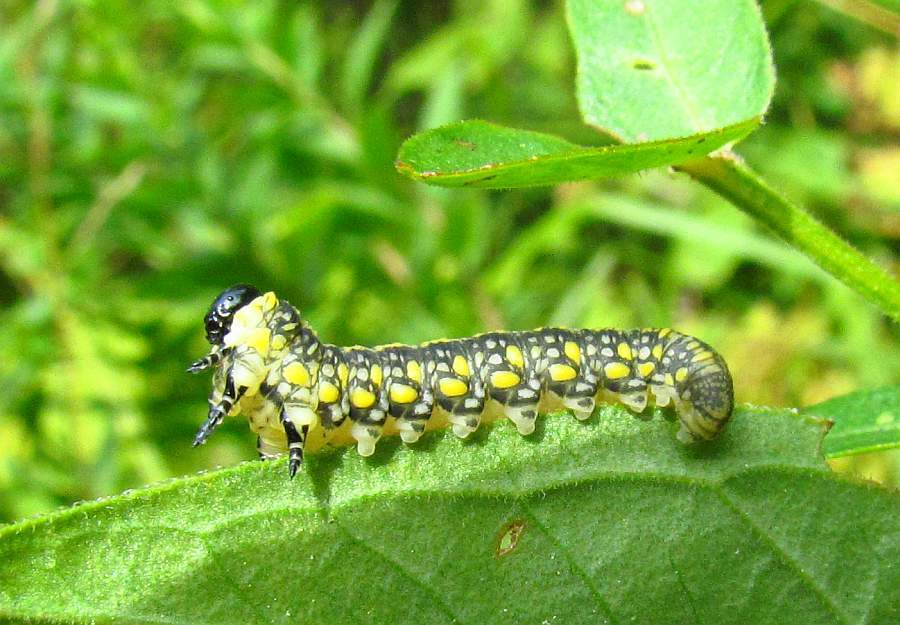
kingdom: Animalia
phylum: Arthropoda
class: Insecta
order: Hymenoptera
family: Diprionidae
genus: Diprion
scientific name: Diprion similis
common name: Pine sawfly
